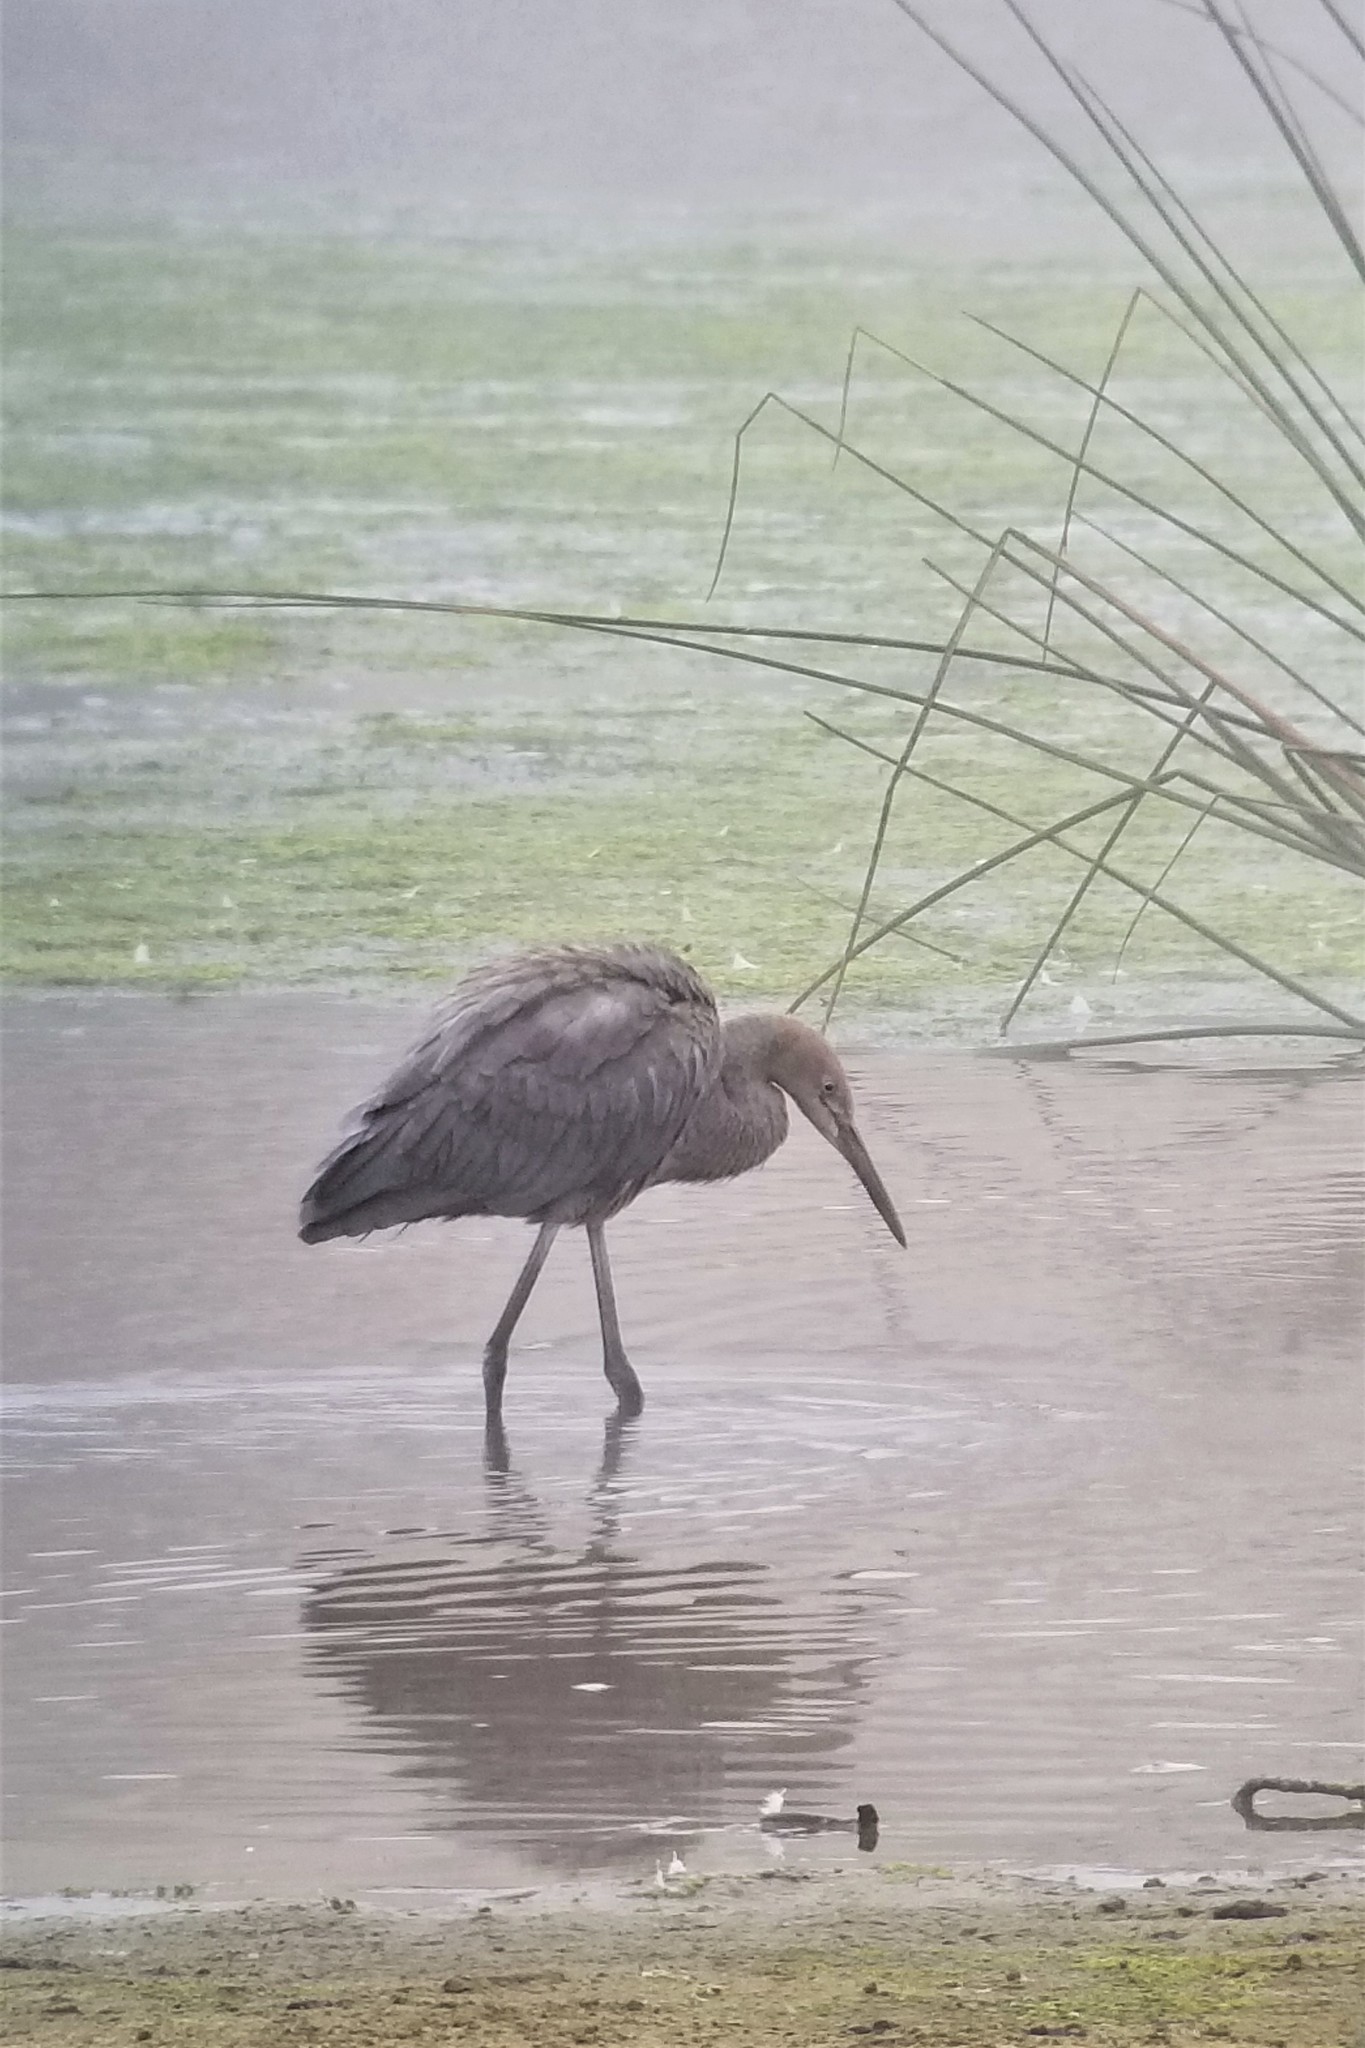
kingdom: Animalia
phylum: Chordata
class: Aves
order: Pelecaniformes
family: Ardeidae
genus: Egretta
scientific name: Egretta rufescens
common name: Reddish egret
